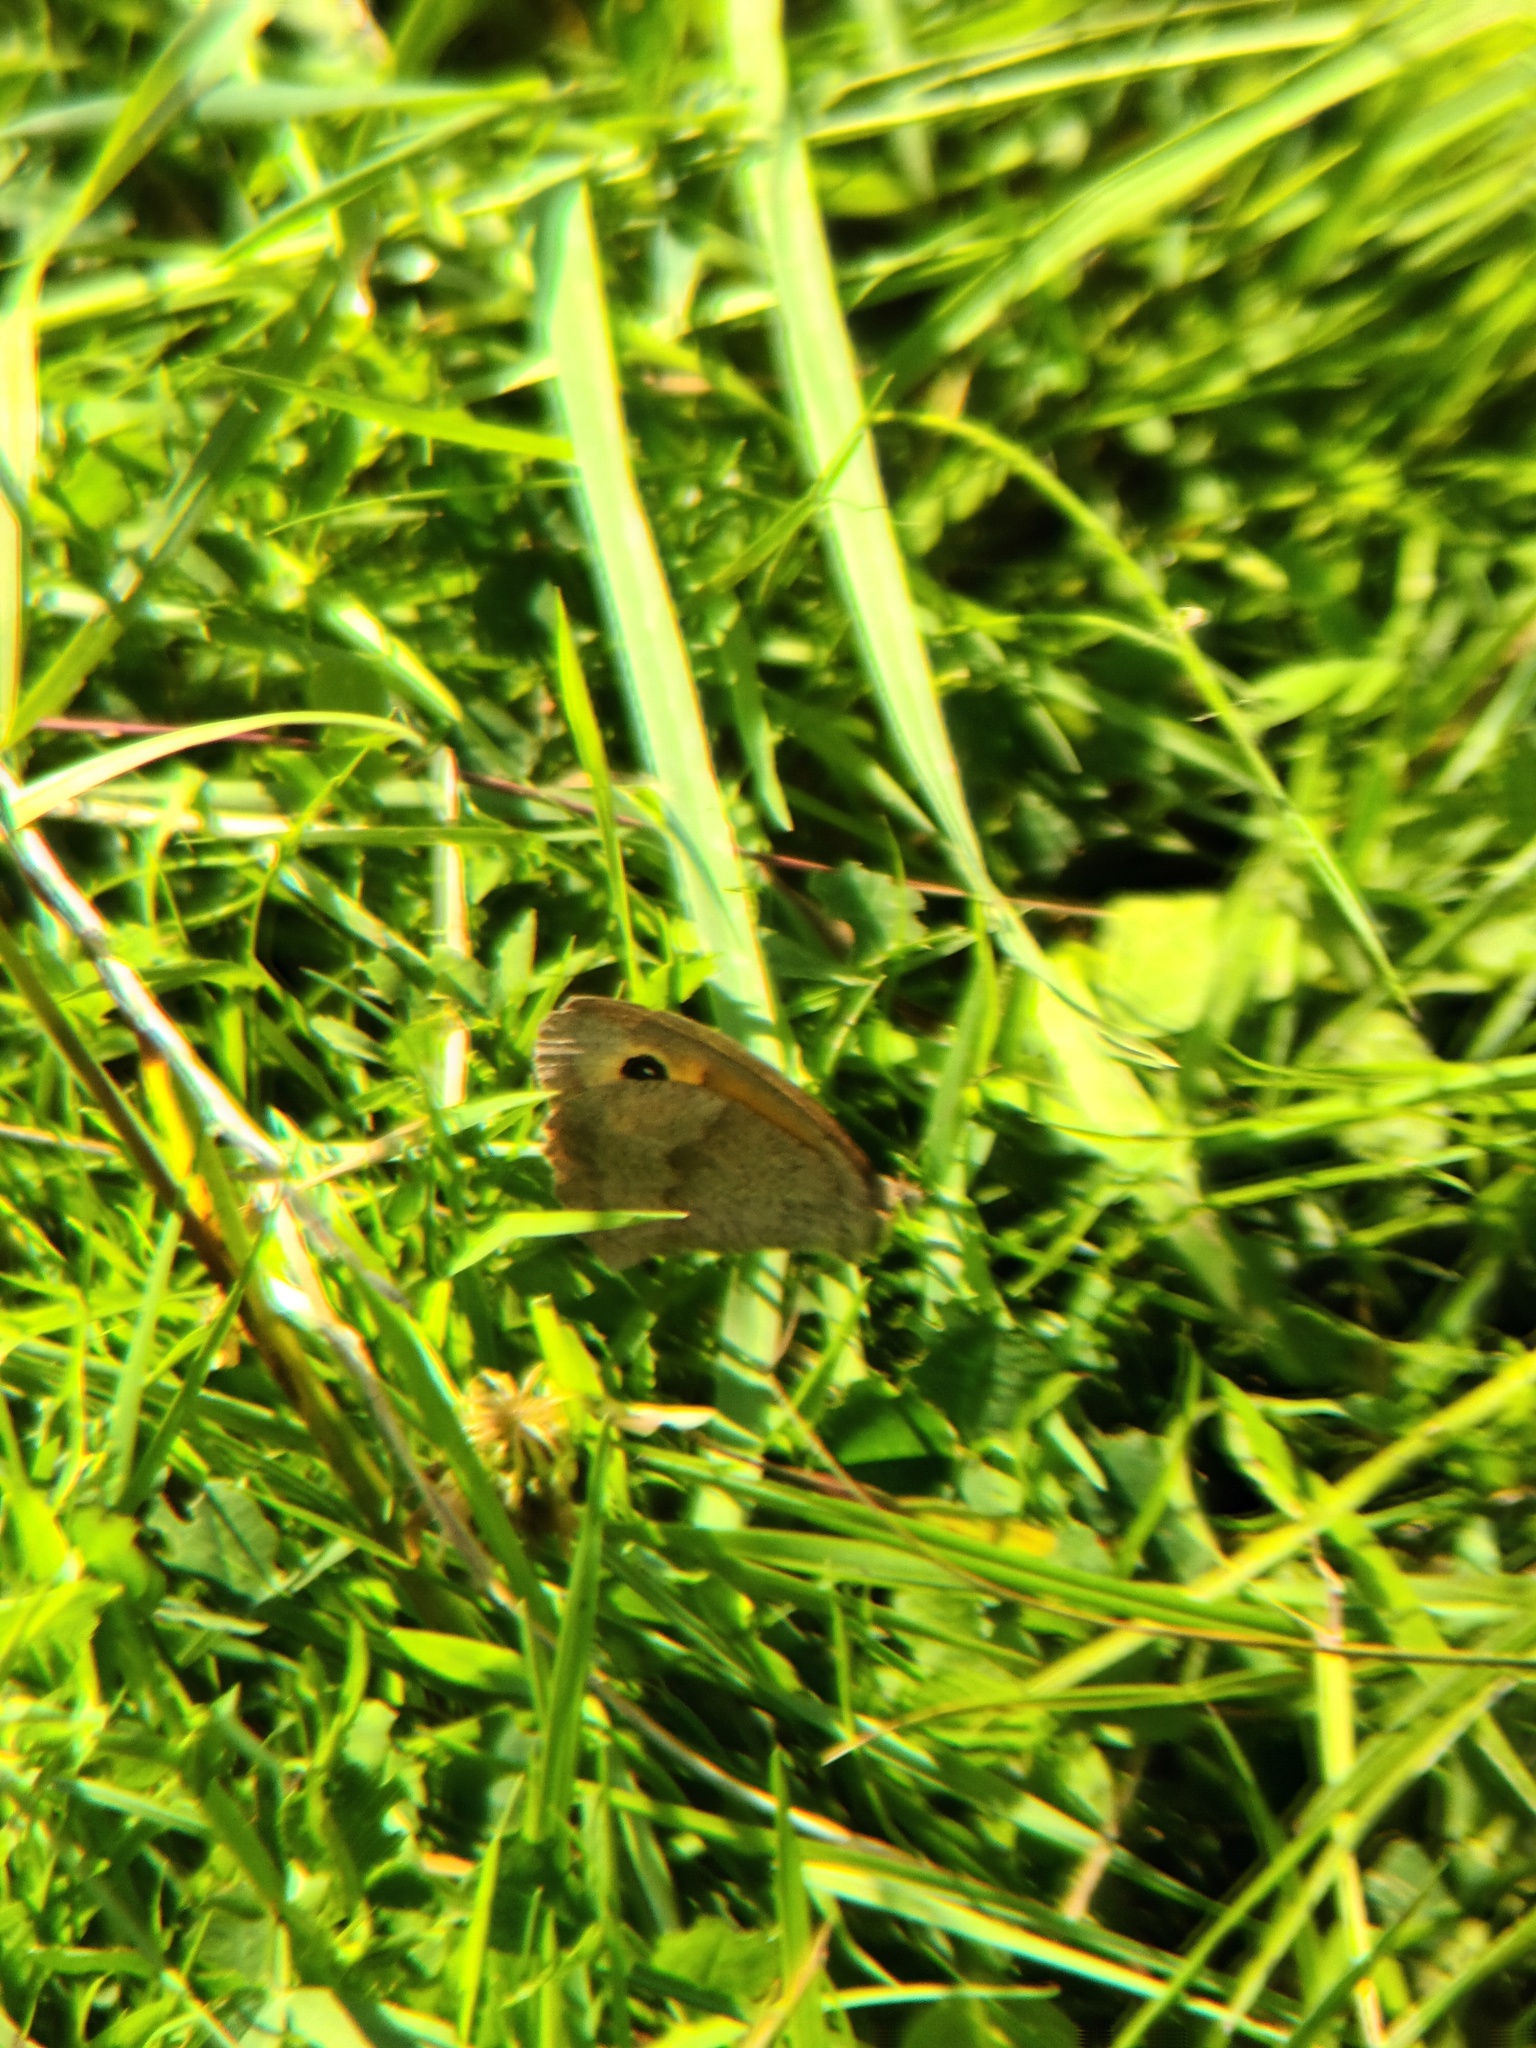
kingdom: Animalia
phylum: Arthropoda
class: Insecta
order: Lepidoptera
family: Nymphalidae
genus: Maniola
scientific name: Maniola jurtina
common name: Meadow brown
